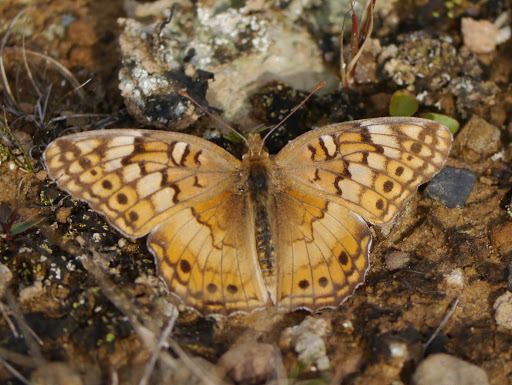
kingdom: Animalia
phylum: Arthropoda
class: Insecta
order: Lepidoptera
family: Nymphalidae
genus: Euptoieta
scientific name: Euptoieta claudia
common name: Variegated fritillary
